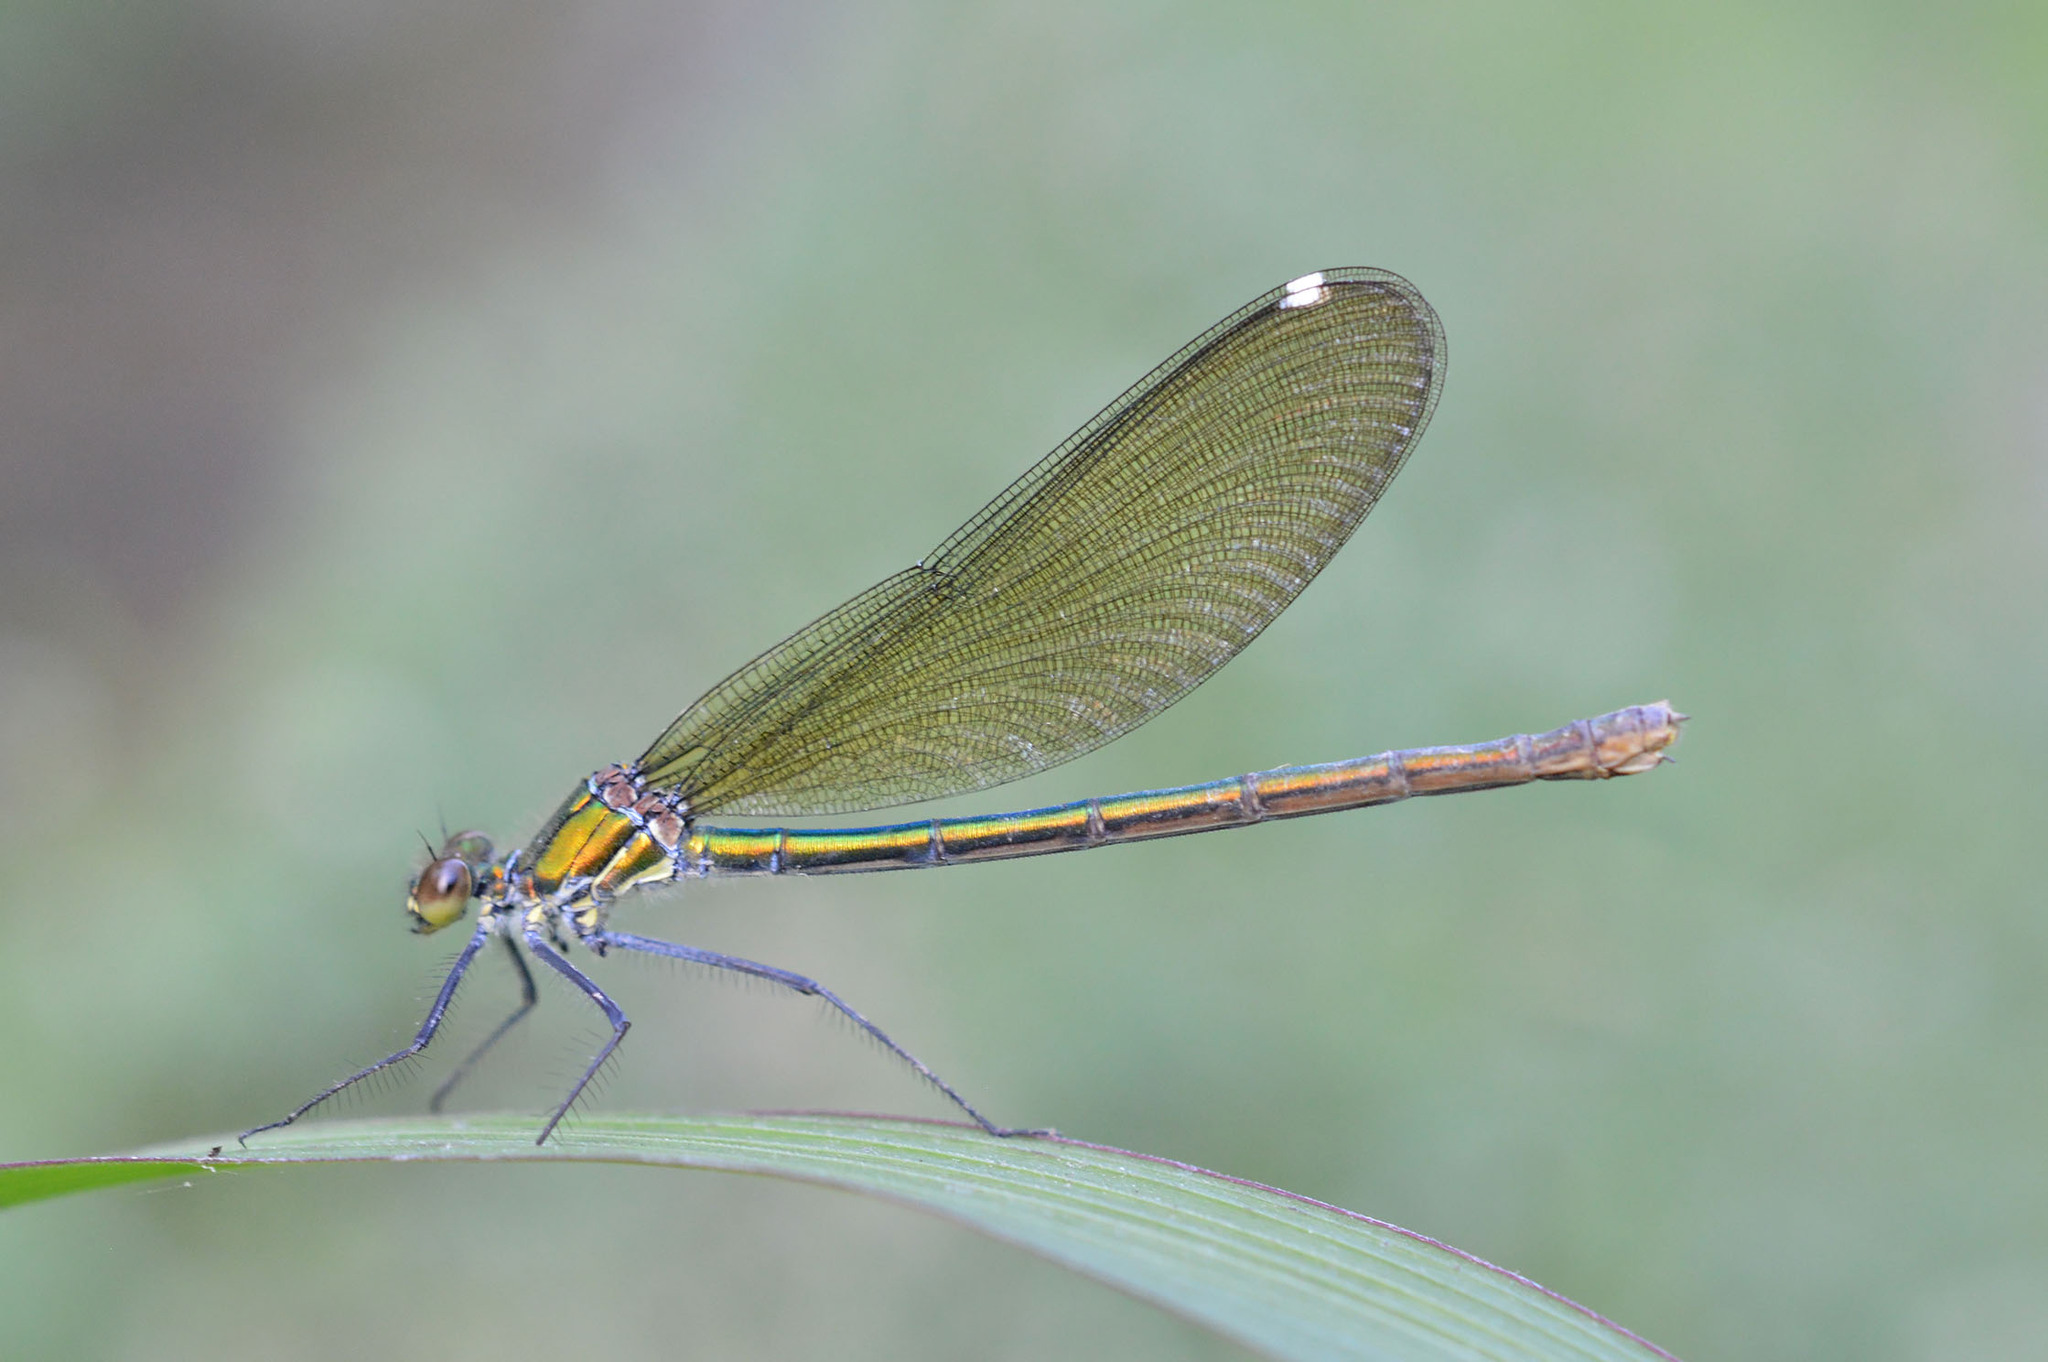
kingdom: Animalia
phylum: Arthropoda
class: Insecta
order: Odonata
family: Calopterygidae
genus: Calopteryx
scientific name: Calopteryx splendens
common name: Banded demoiselle
